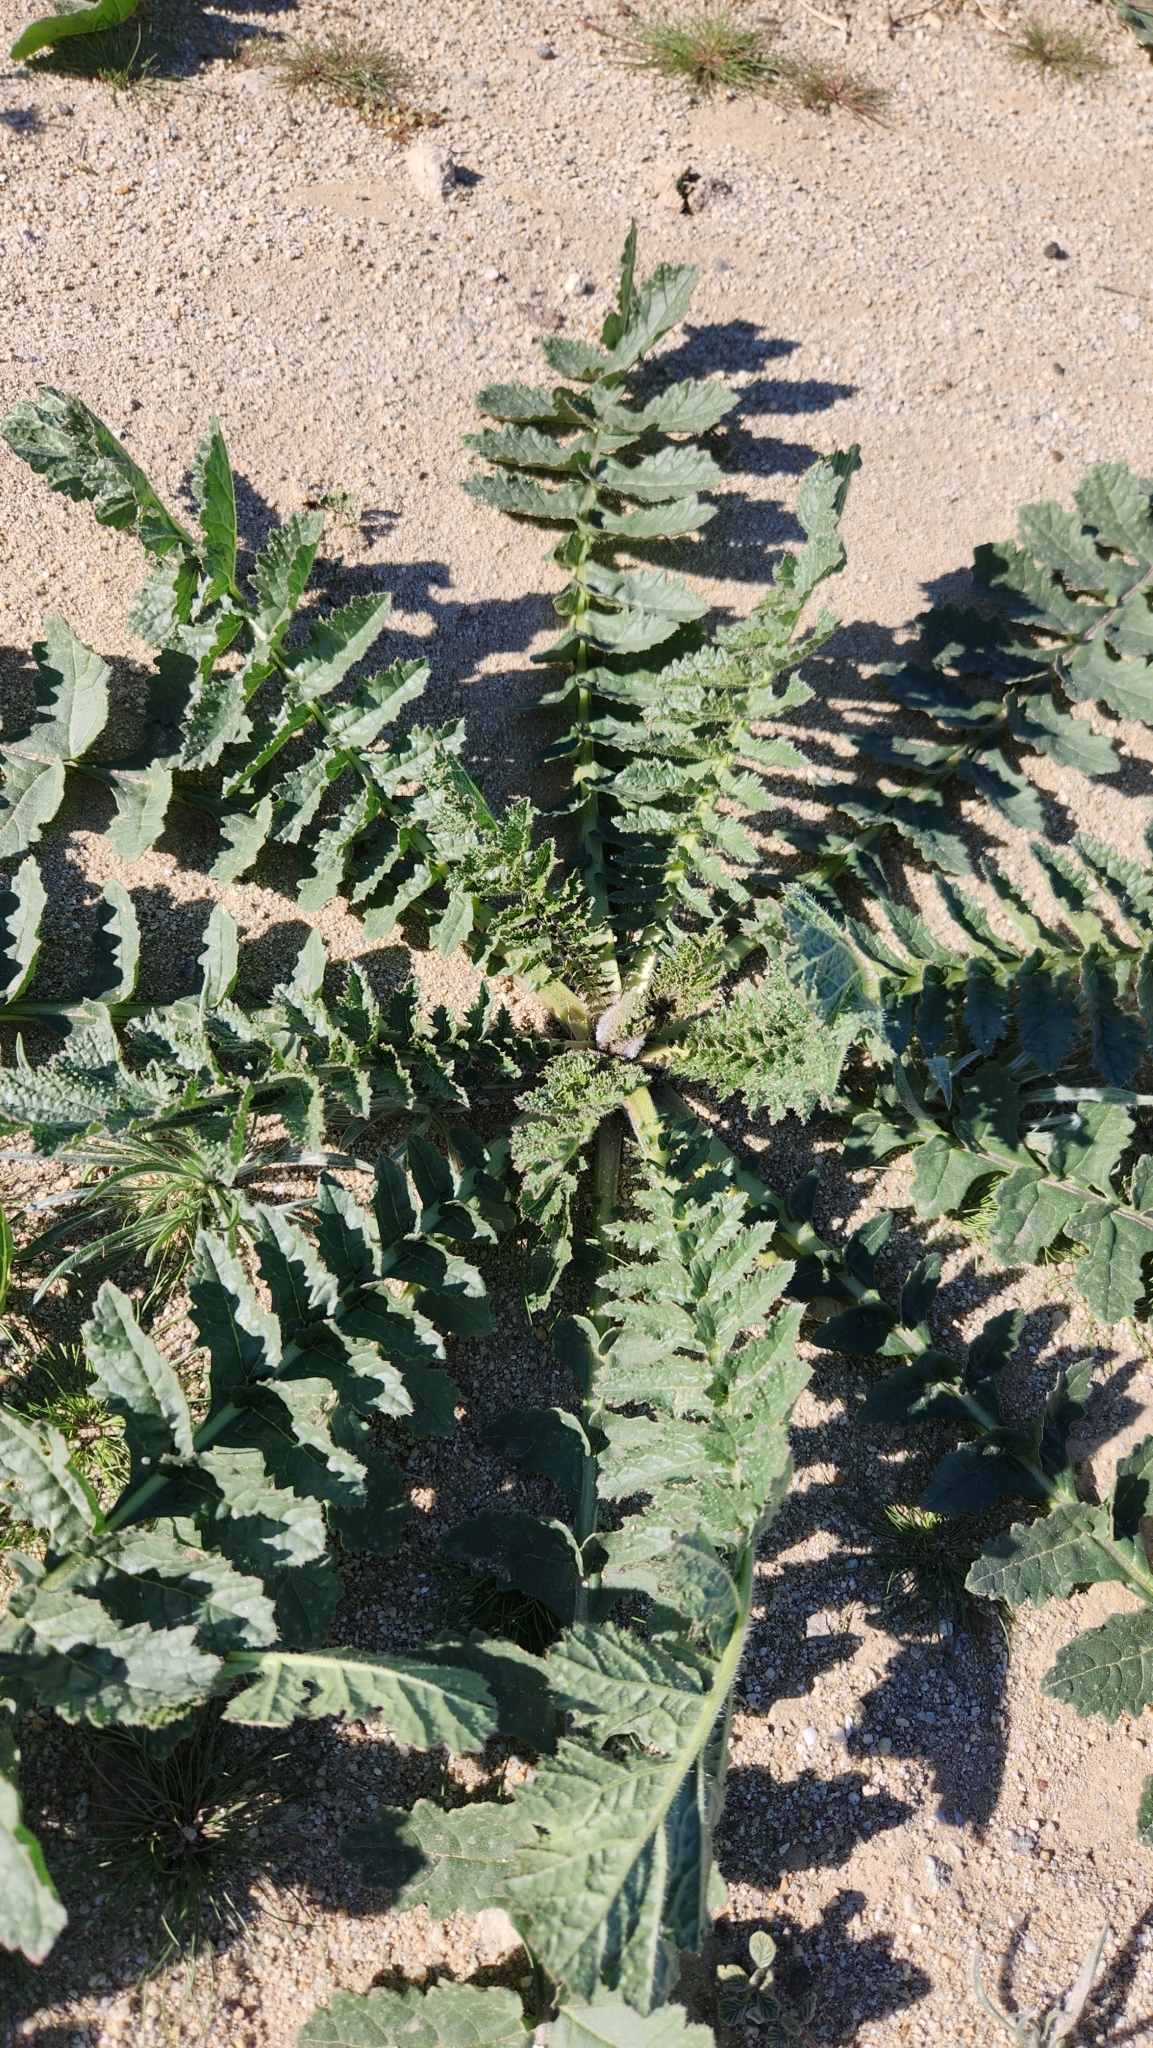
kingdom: Plantae
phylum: Tracheophyta
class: Magnoliopsida
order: Brassicales
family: Brassicaceae
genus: Brassica
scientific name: Brassica tournefortii
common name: Pale cabbage
